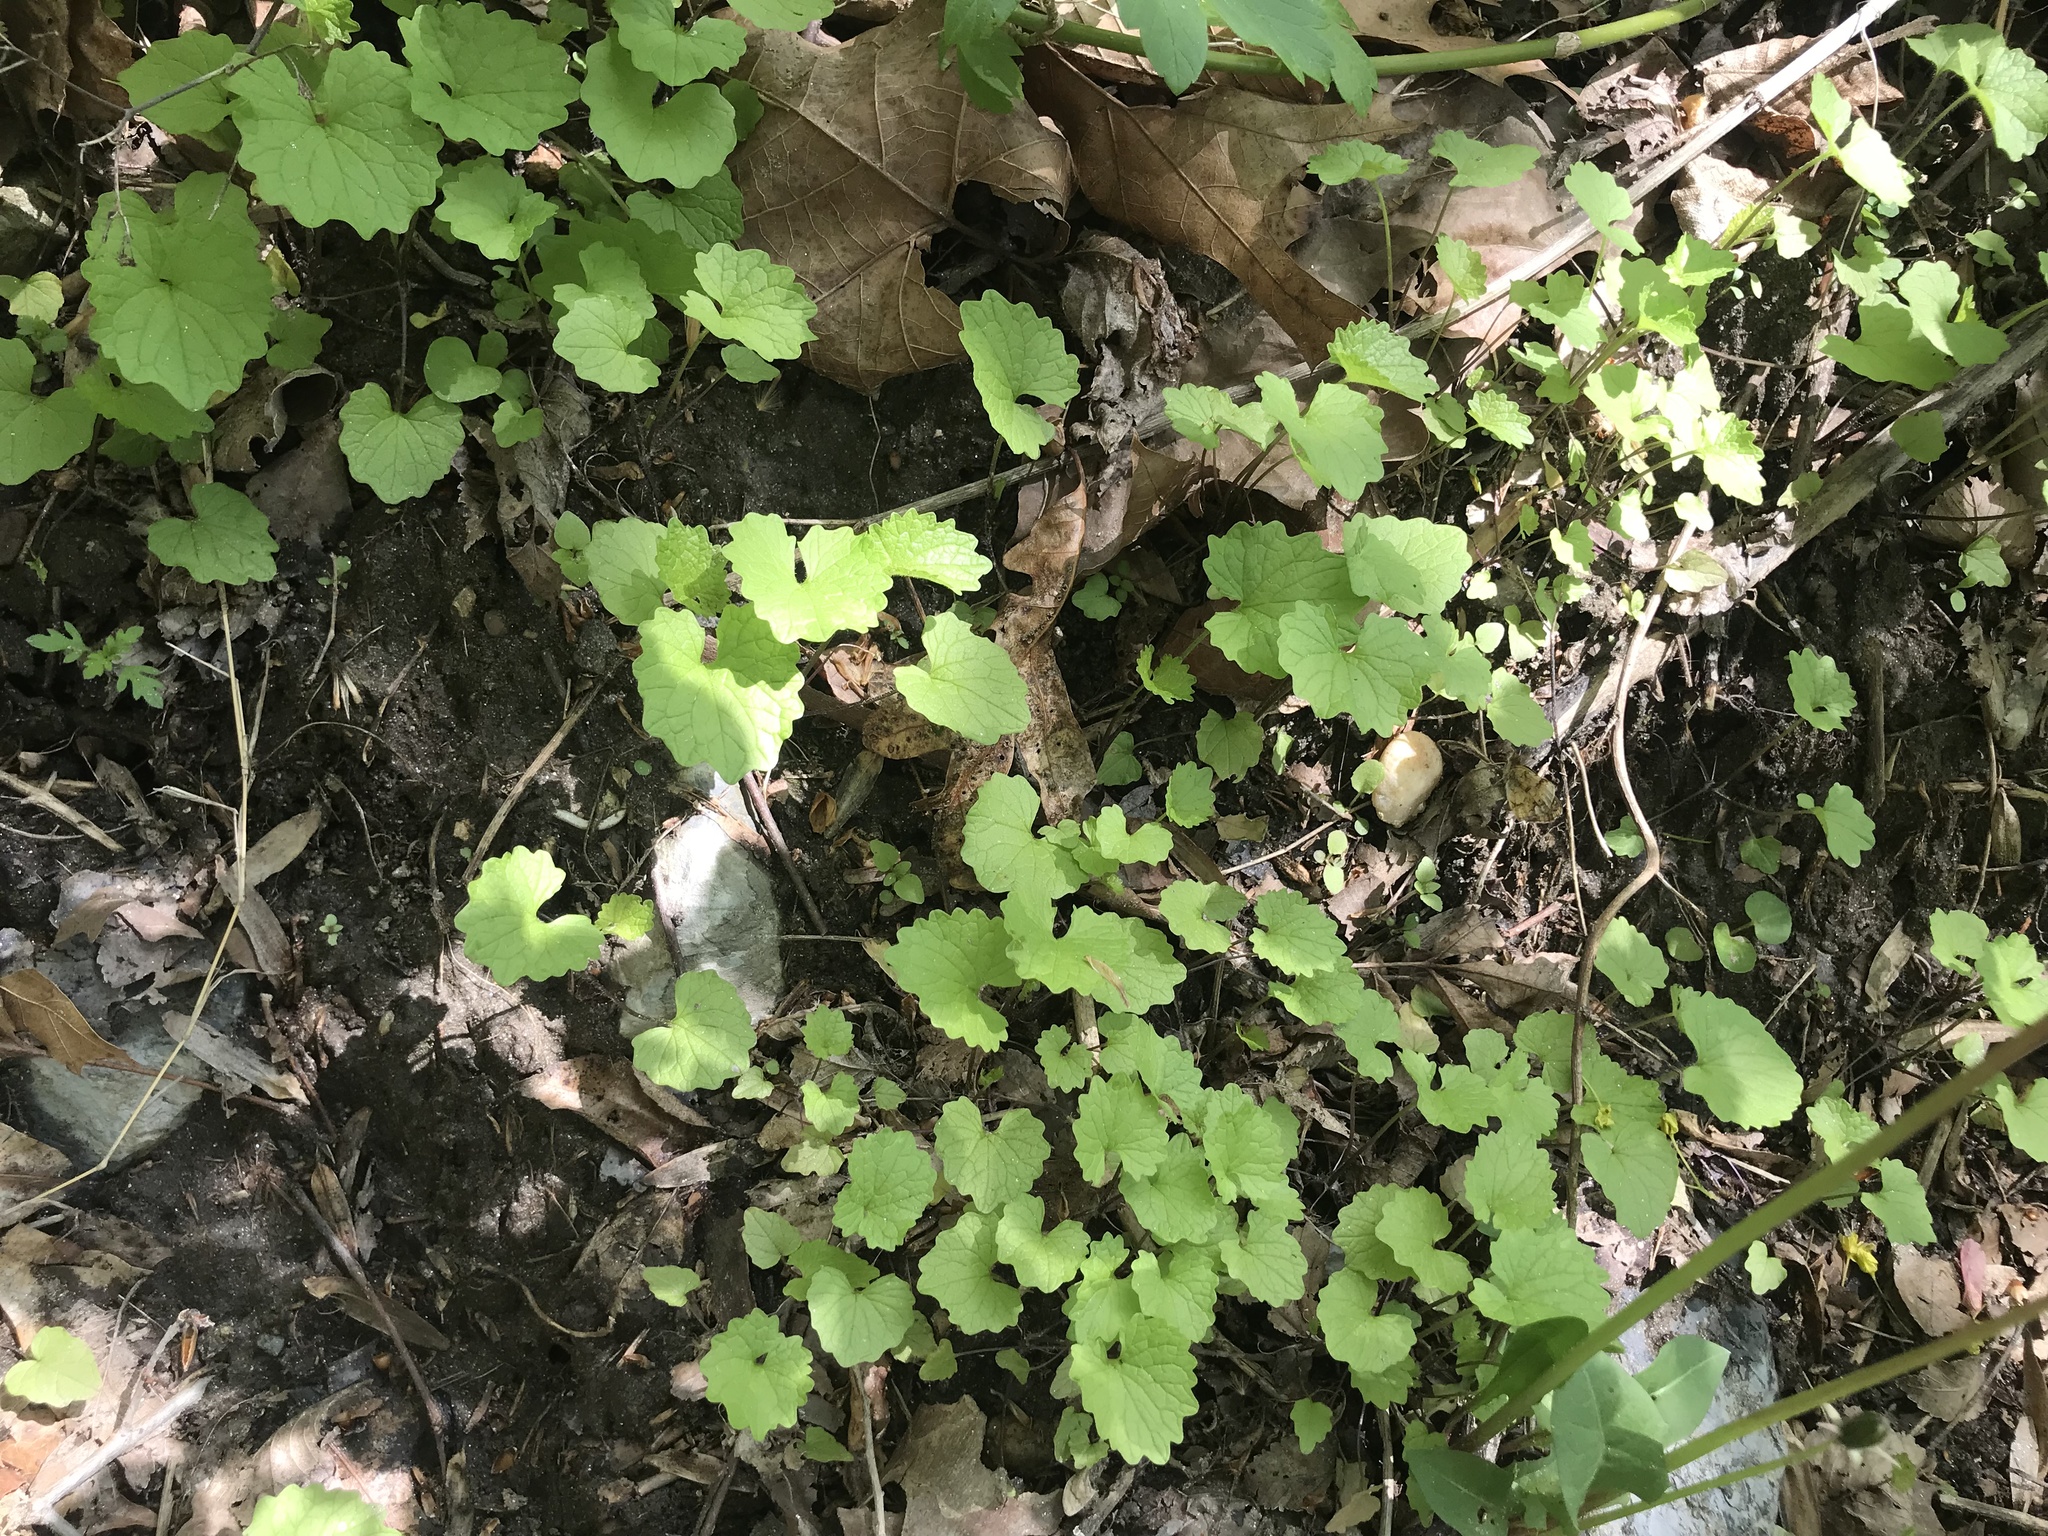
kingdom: Plantae
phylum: Tracheophyta
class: Magnoliopsida
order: Brassicales
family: Brassicaceae
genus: Alliaria
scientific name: Alliaria petiolata
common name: Garlic mustard
